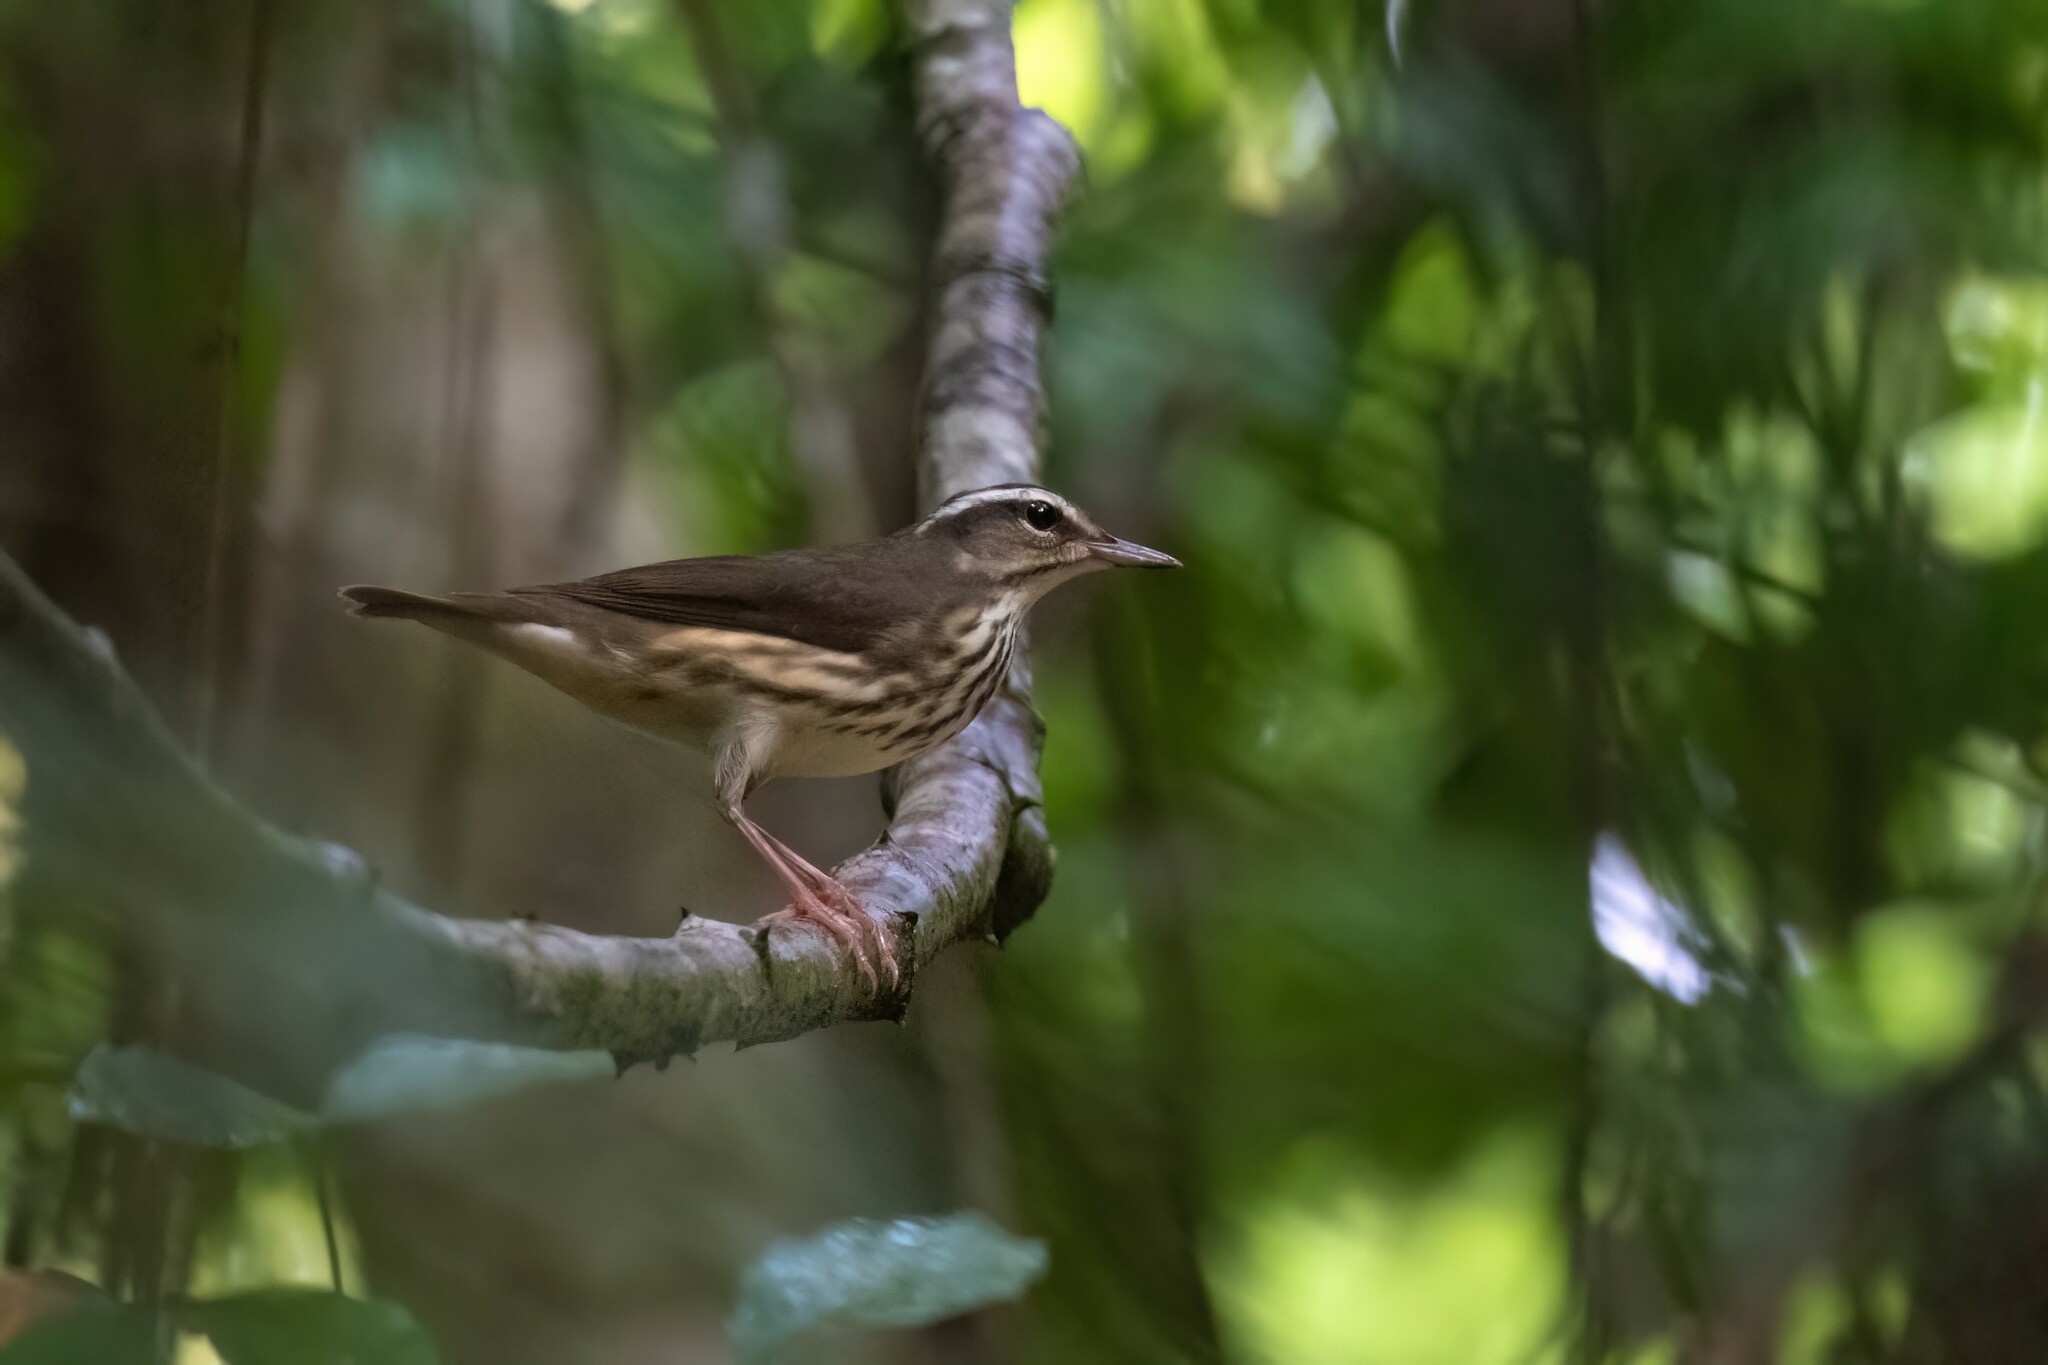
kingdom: Animalia
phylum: Chordata
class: Aves
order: Passeriformes
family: Parulidae
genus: Parkesia
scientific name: Parkesia motacilla
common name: Louisiana waterthrush
